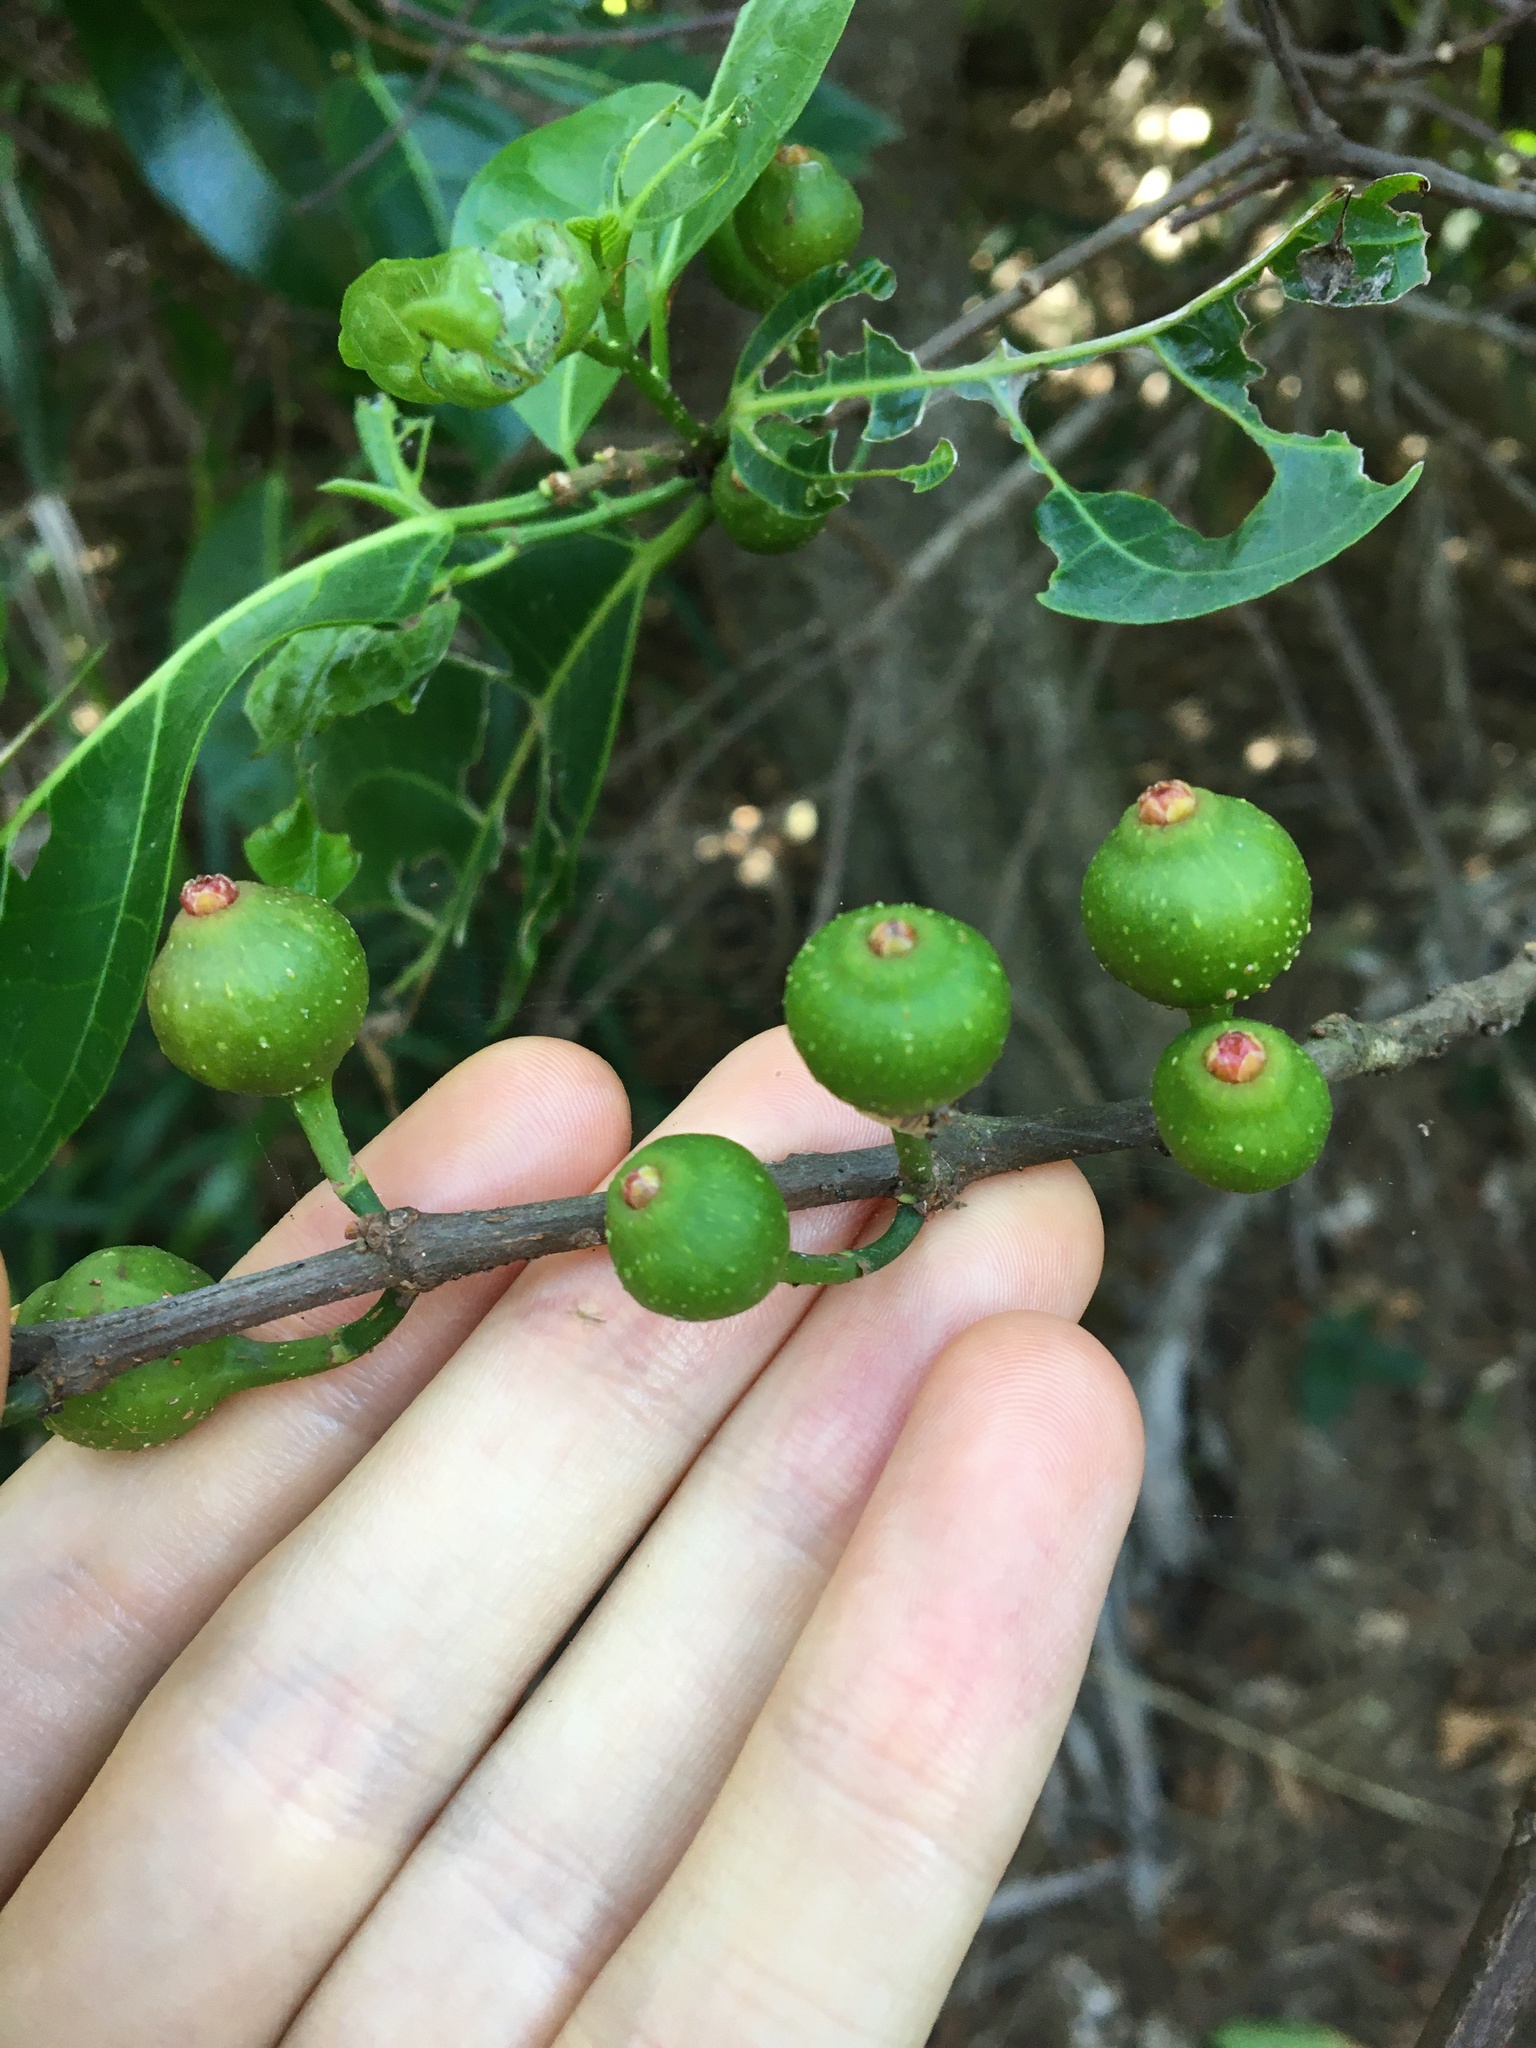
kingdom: Plantae
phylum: Tracheophyta
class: Magnoliopsida
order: Rosales
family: Moraceae
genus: Ficus
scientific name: Ficus fraseri
